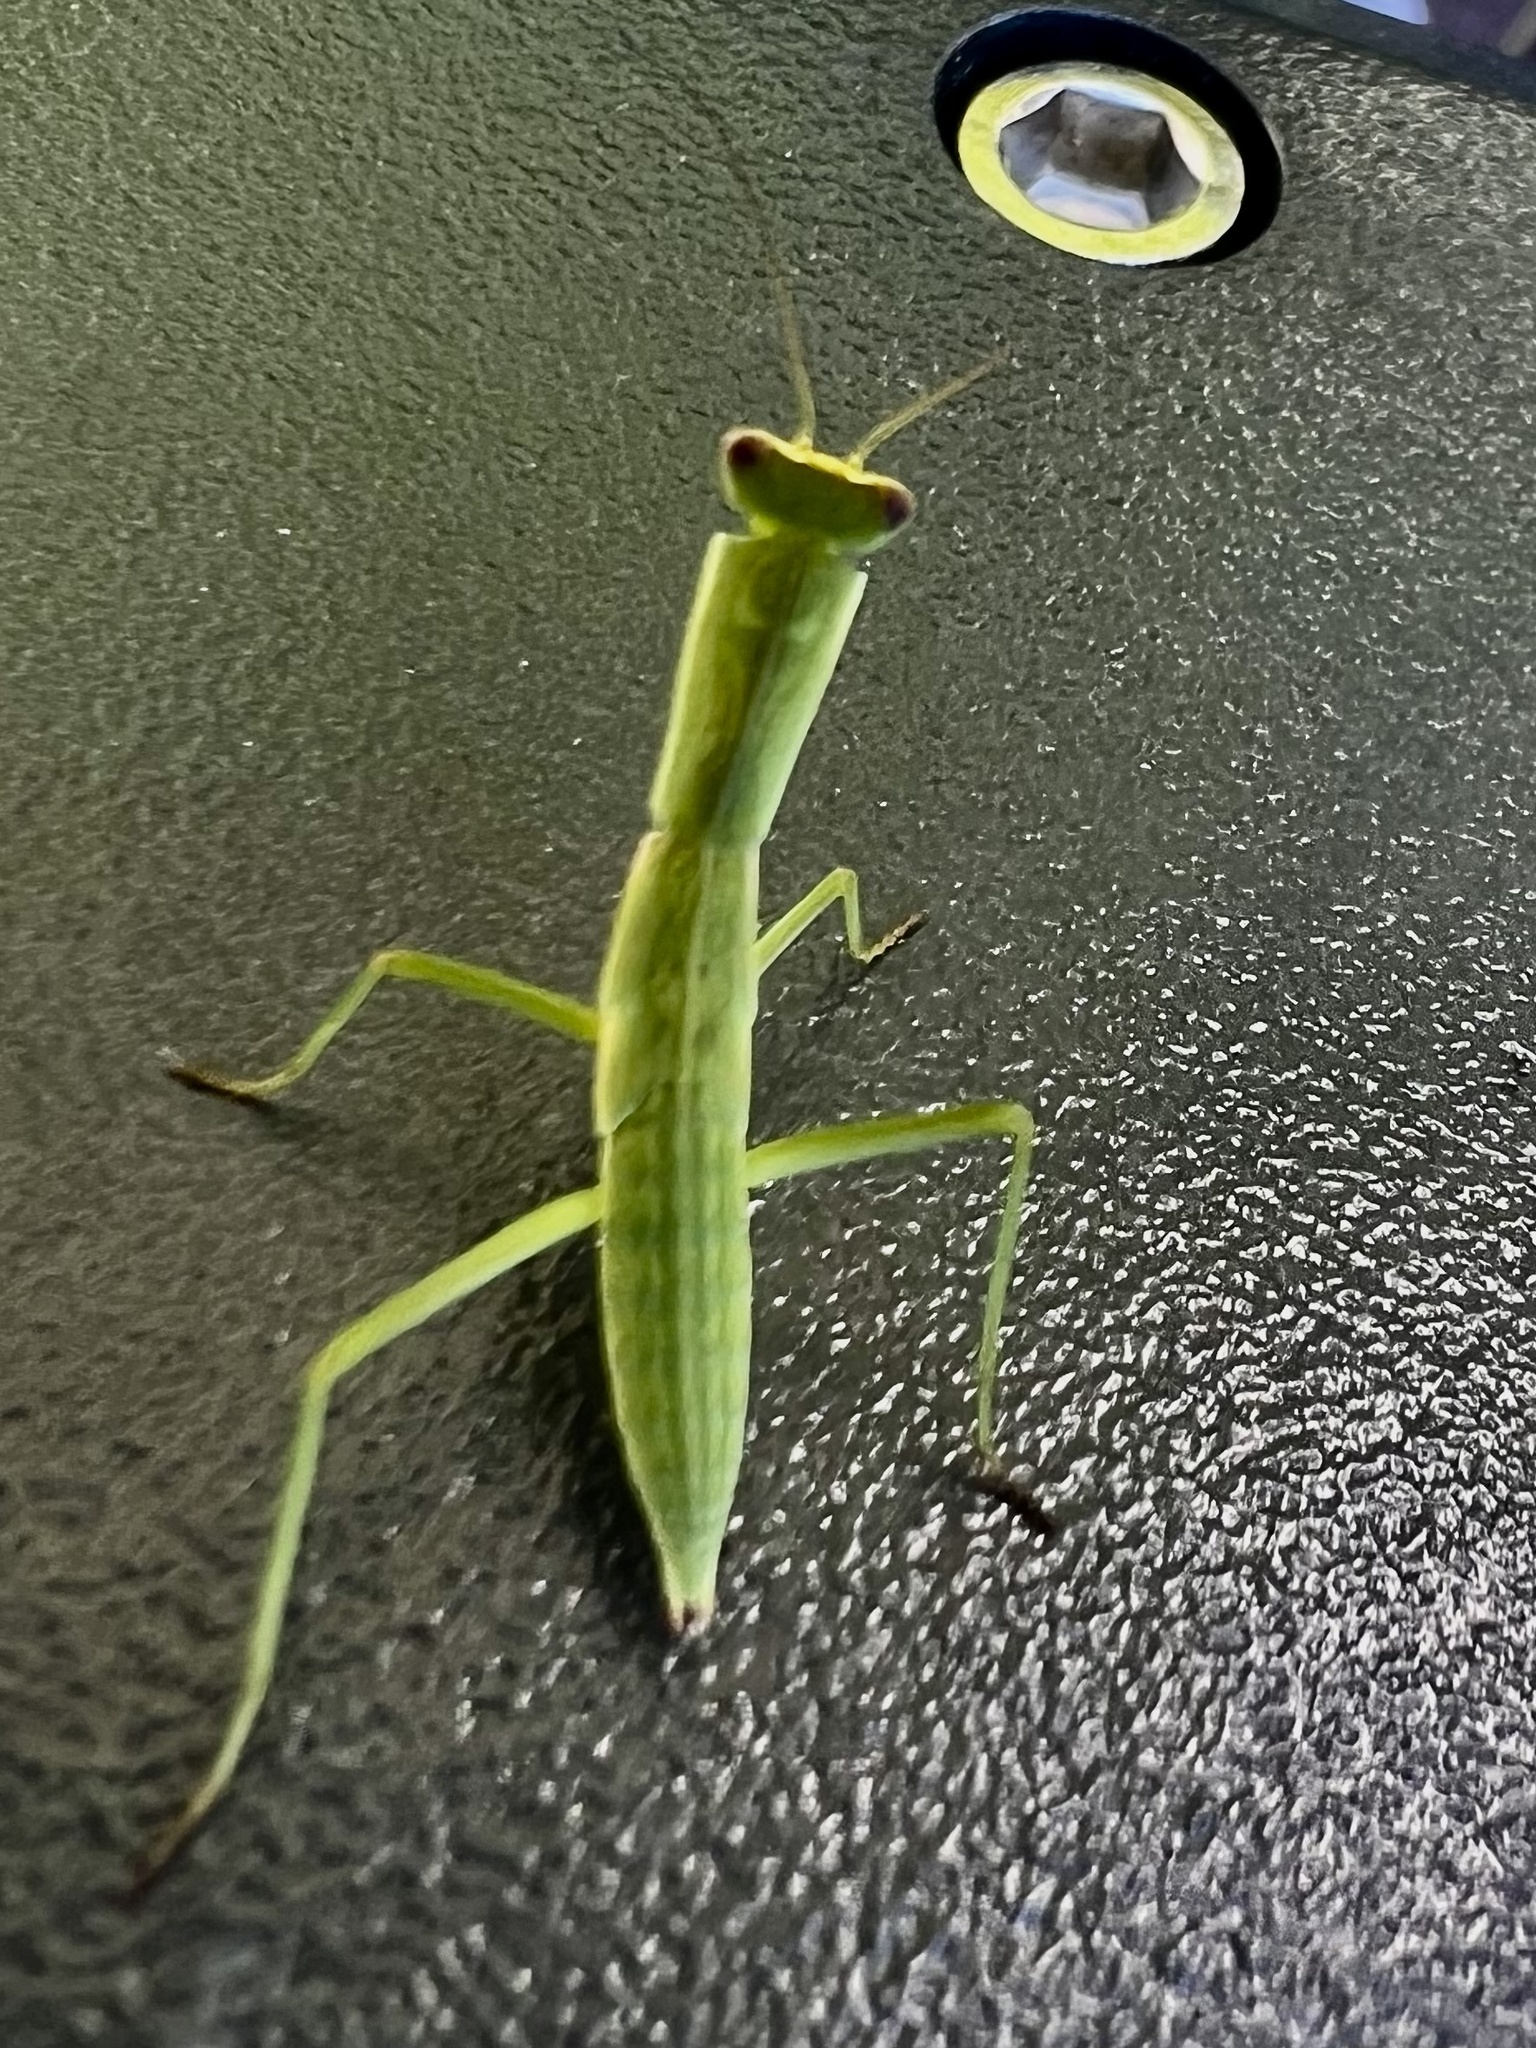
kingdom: Animalia
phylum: Arthropoda
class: Insecta
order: Mantodea
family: Mantidae
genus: Orthodera
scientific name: Orthodera novaezealandiae
